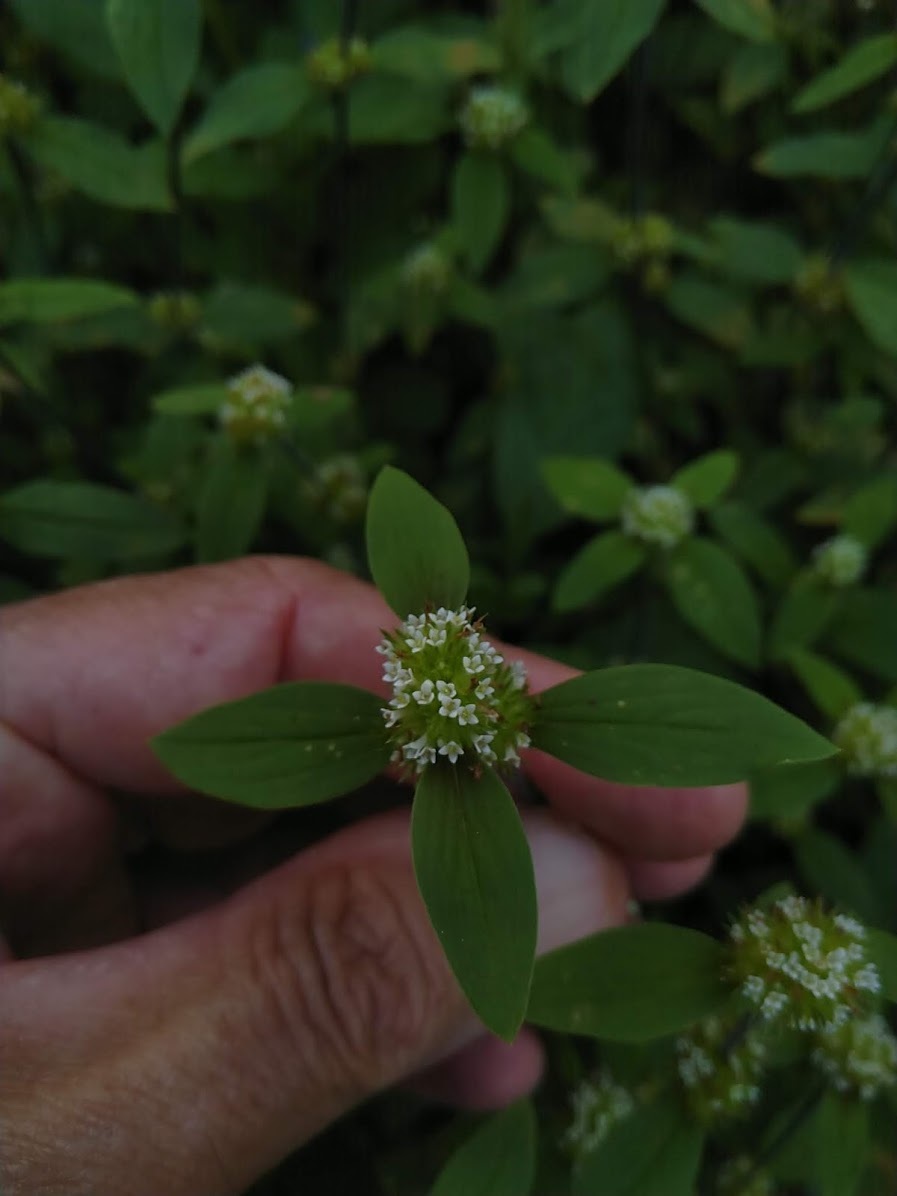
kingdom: Plantae
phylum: Tracheophyta
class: Magnoliopsida
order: Gentianales
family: Rubiaceae
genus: Mitracarpus
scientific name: Mitracarpus hirtus
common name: Tropical girdlepod
